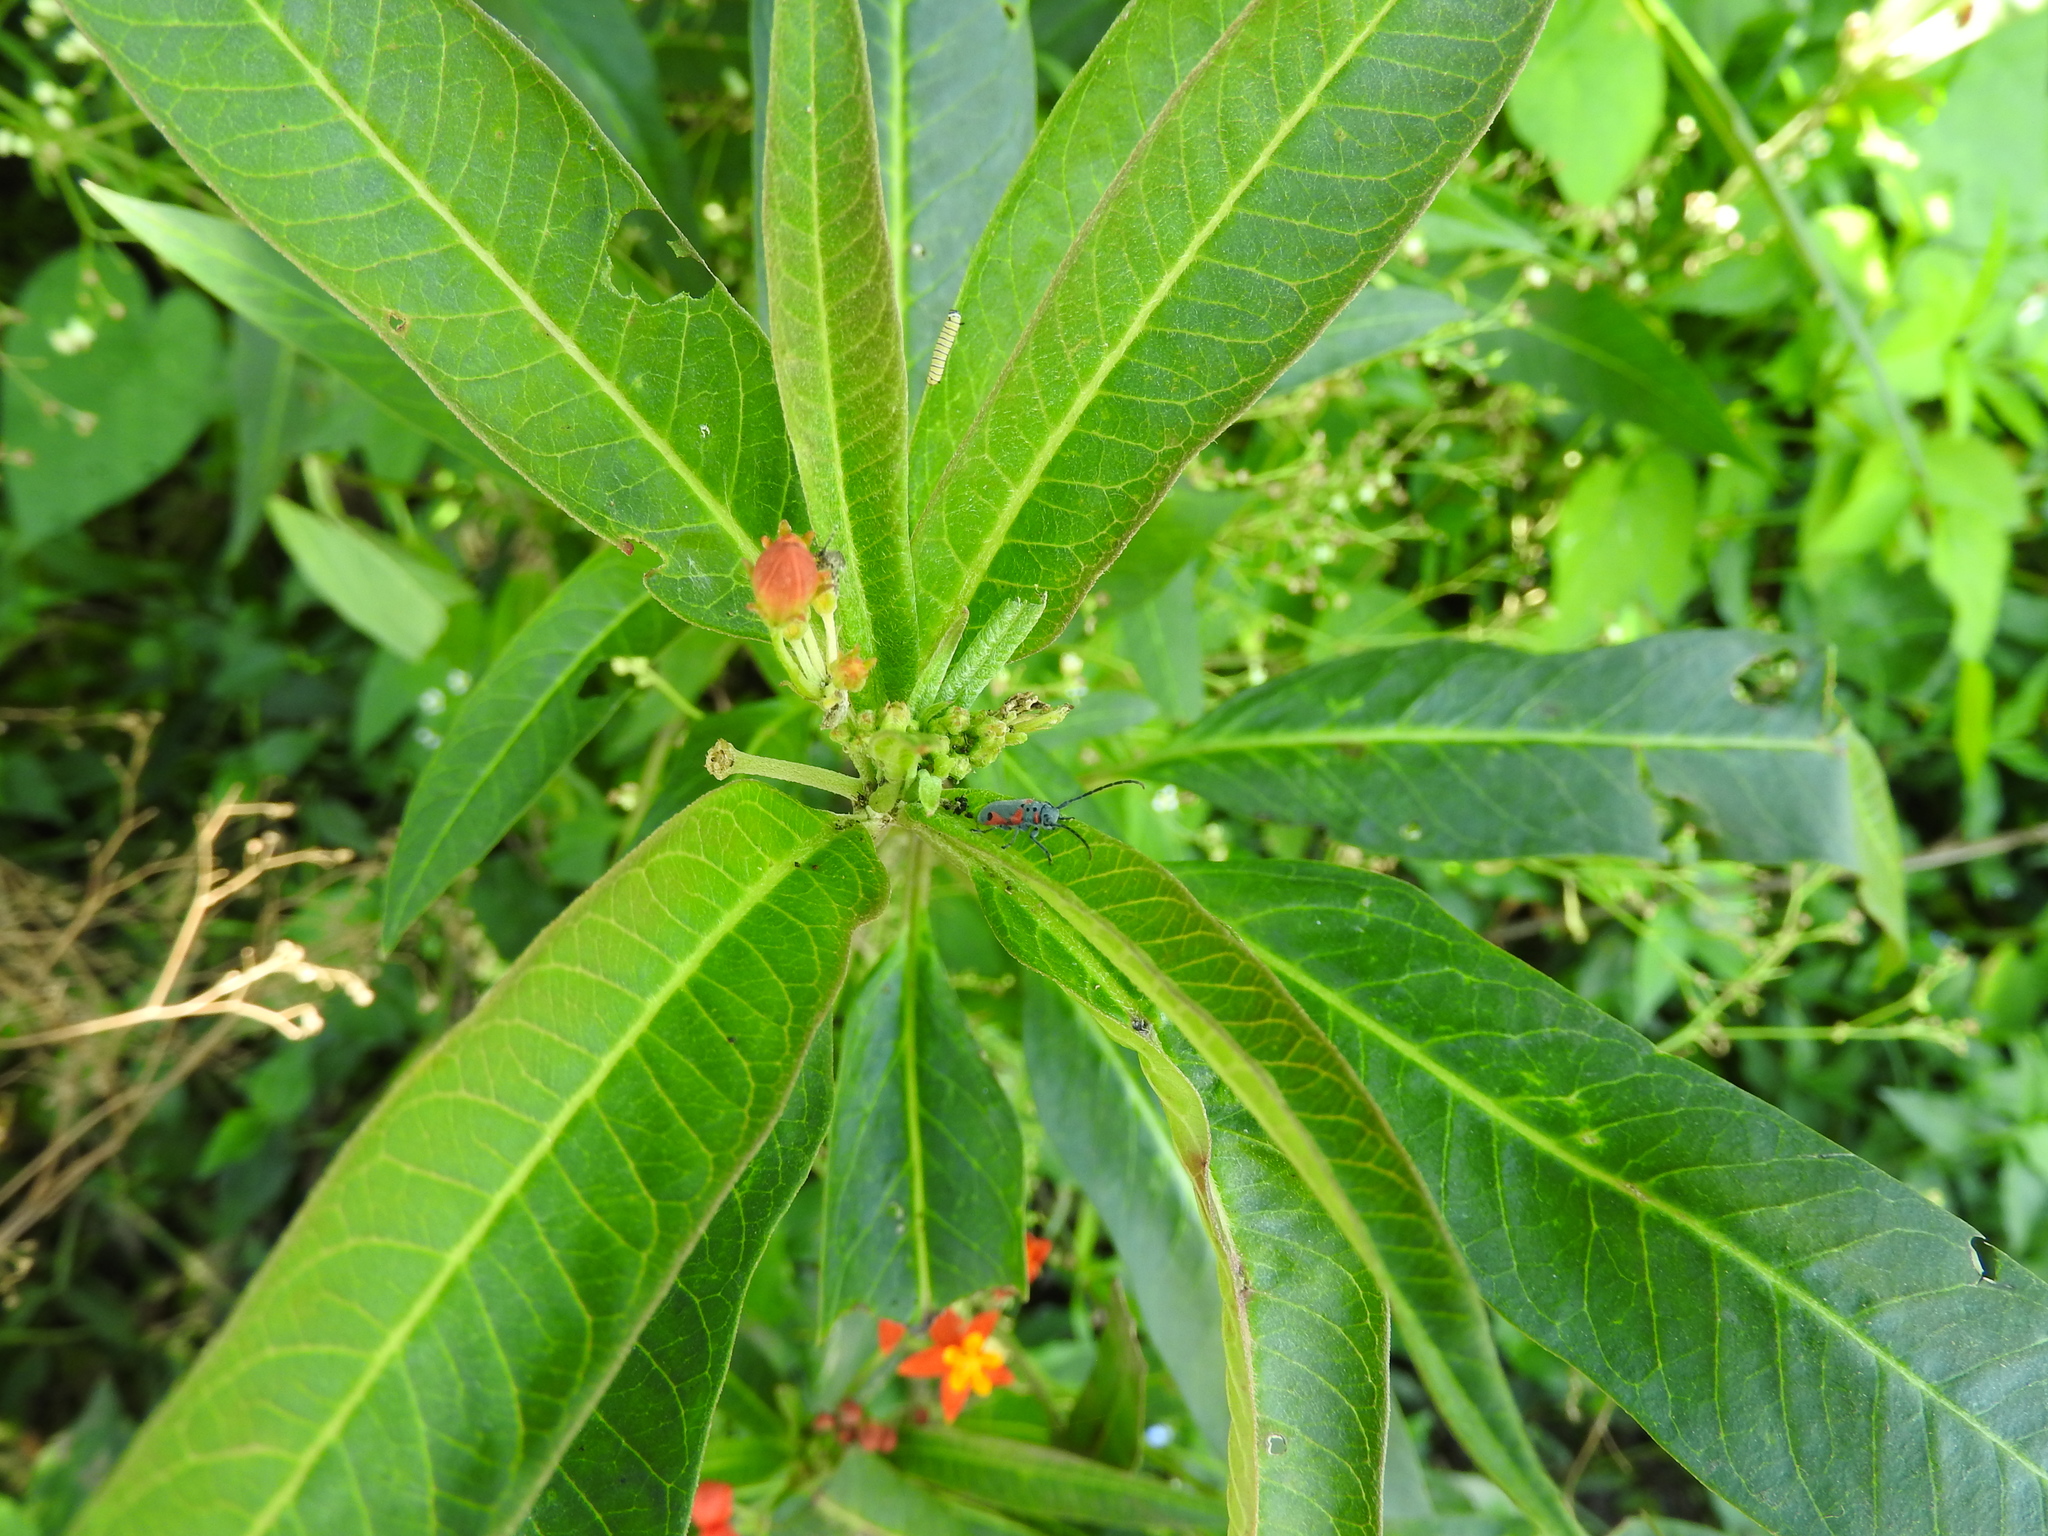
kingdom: Animalia
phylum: Arthropoda
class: Insecta
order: Lepidoptera
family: Nymphalidae
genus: Danaus
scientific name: Danaus plexippus
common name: Monarch
